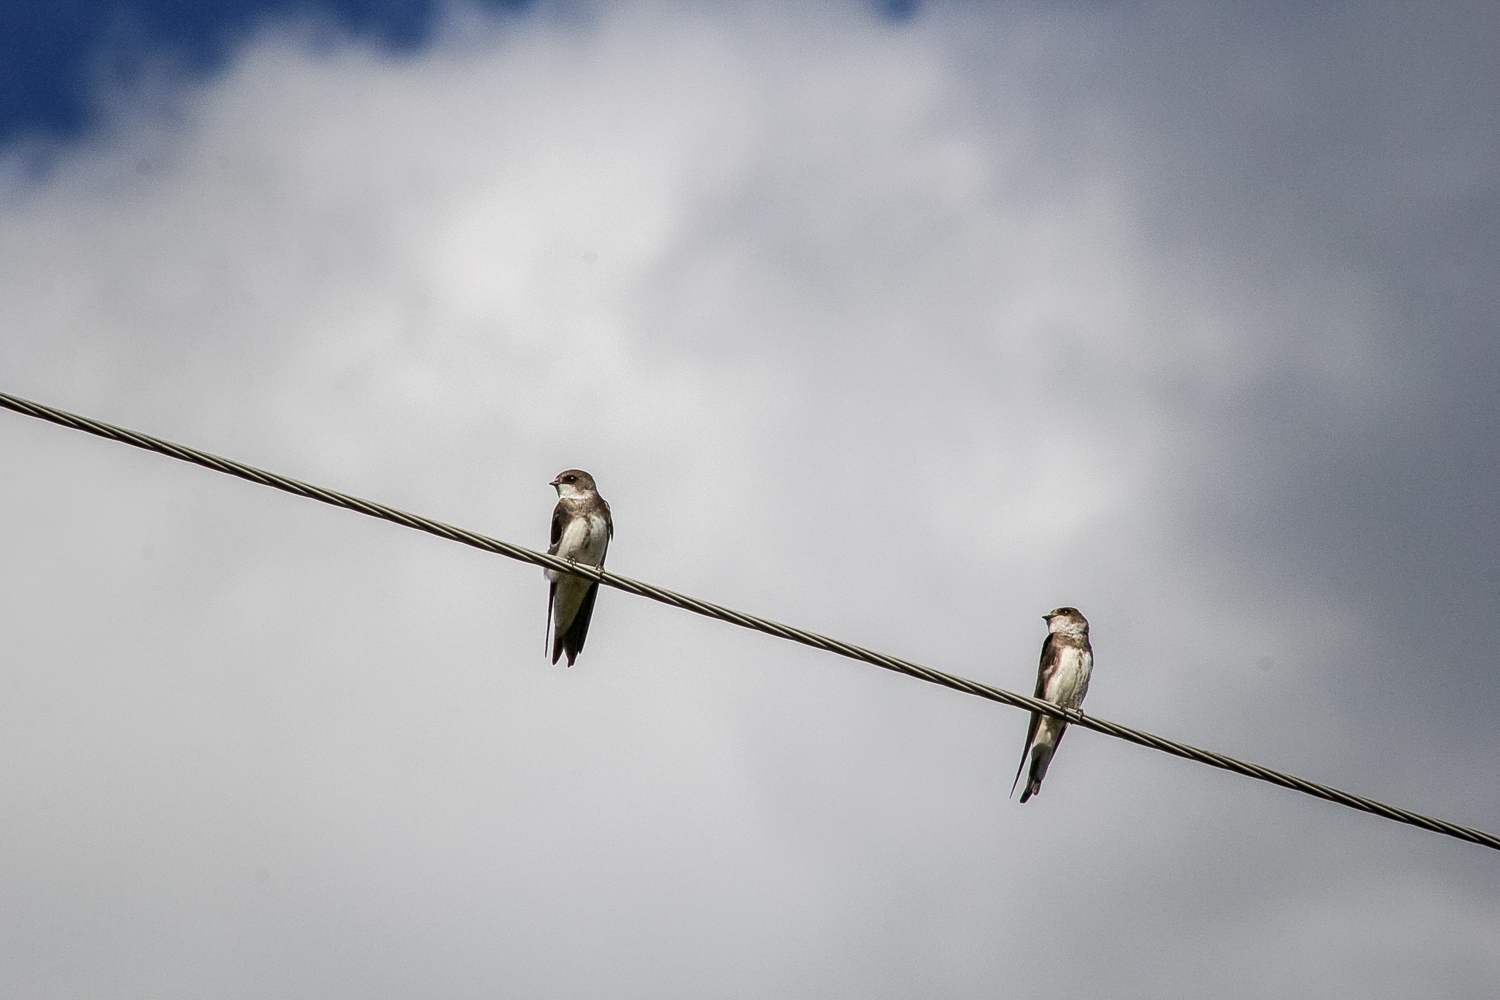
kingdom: Animalia
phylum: Chordata
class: Aves
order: Passeriformes
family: Hirundinidae
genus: Riparia
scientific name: Riparia riparia
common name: Sand martin
